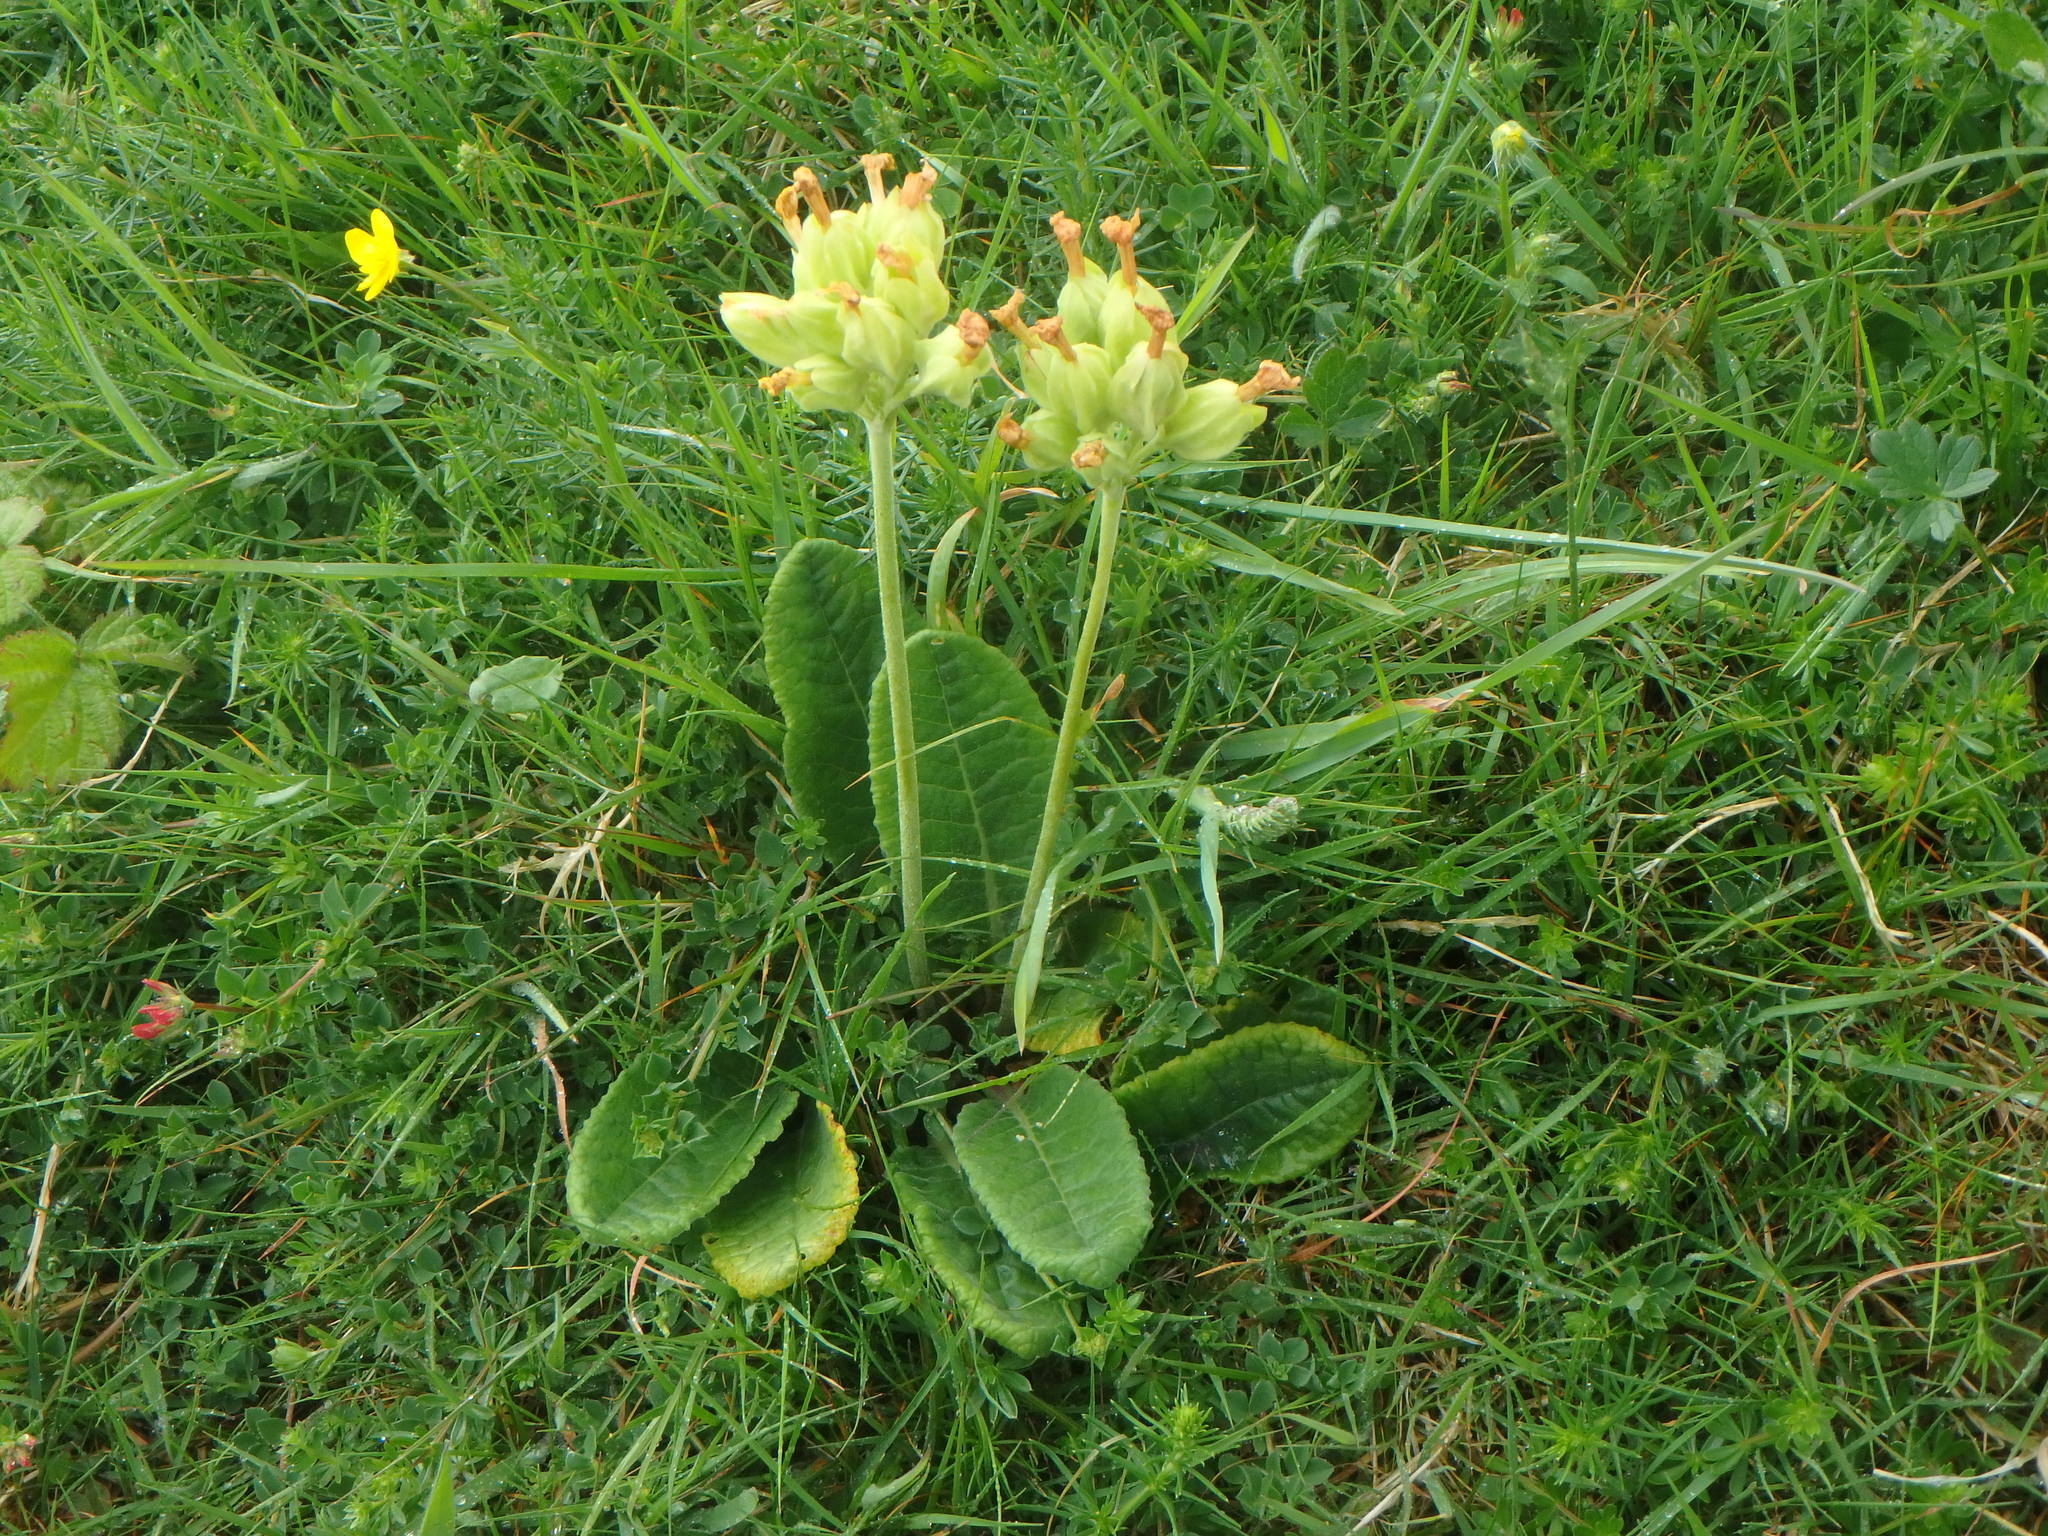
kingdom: Plantae
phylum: Tracheophyta
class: Magnoliopsida
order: Ericales
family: Primulaceae
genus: Primula
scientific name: Primula veris
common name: Cowslip
